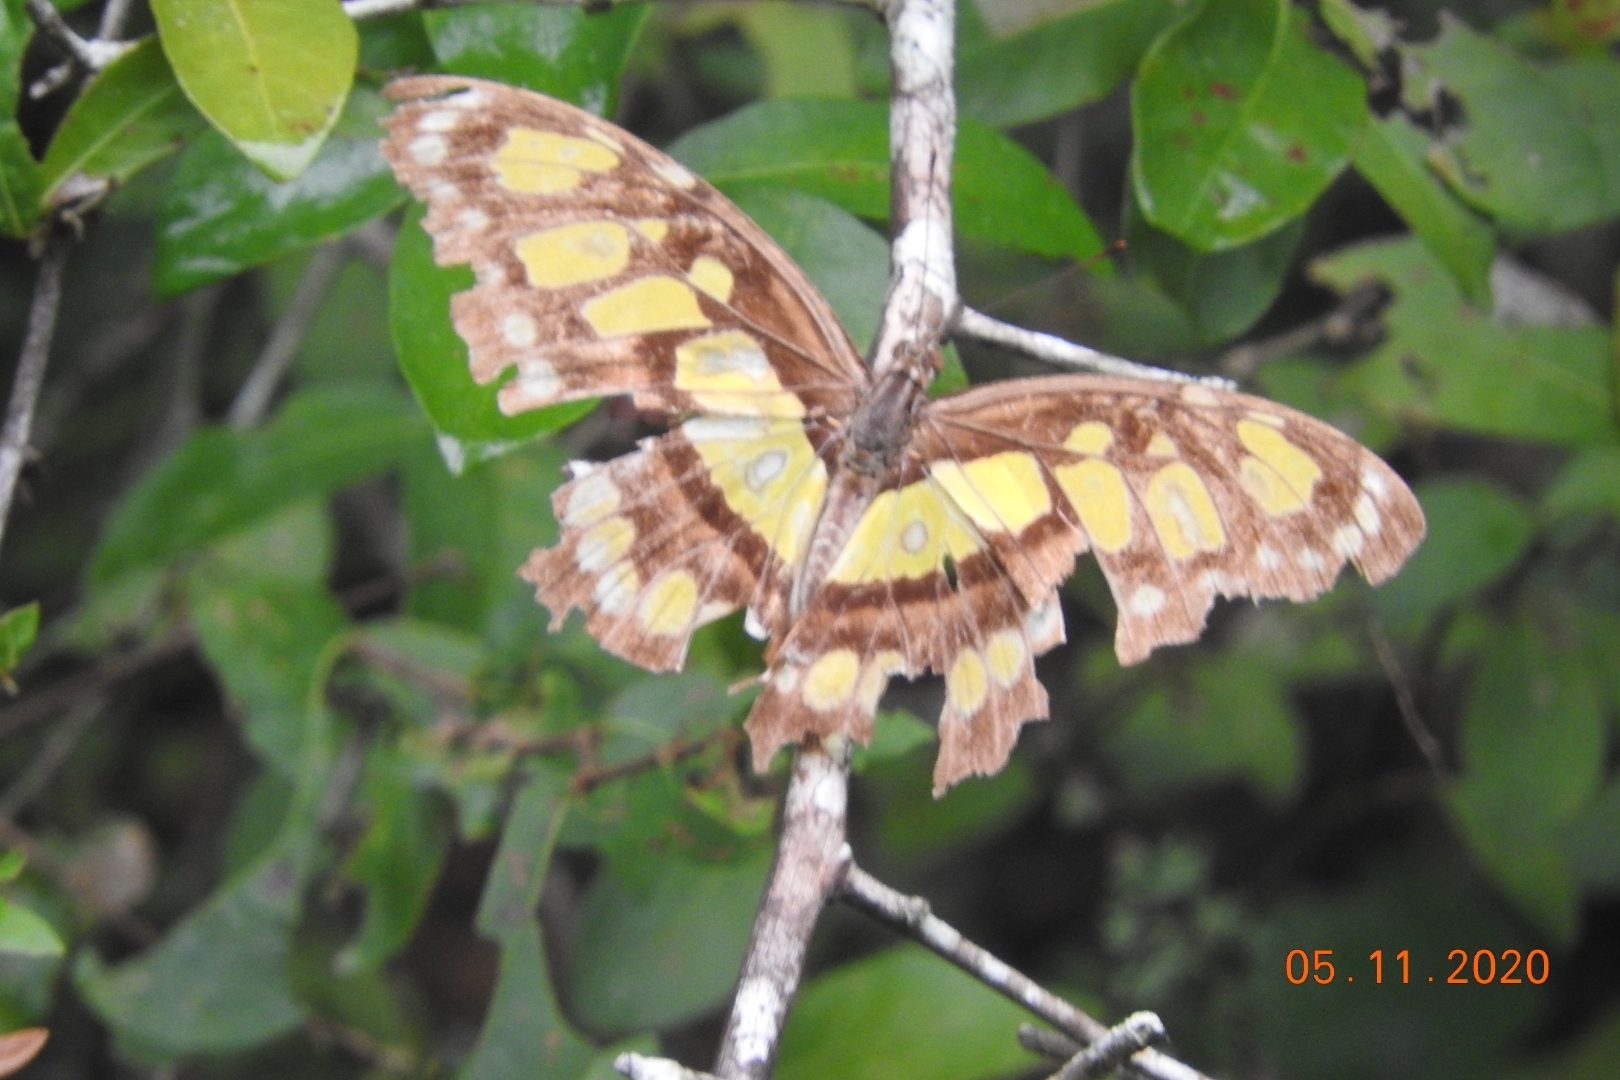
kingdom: Animalia
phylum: Arthropoda
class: Insecta
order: Lepidoptera
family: Nymphalidae
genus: Siproeta
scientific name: Siproeta stelenes
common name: Malachite
